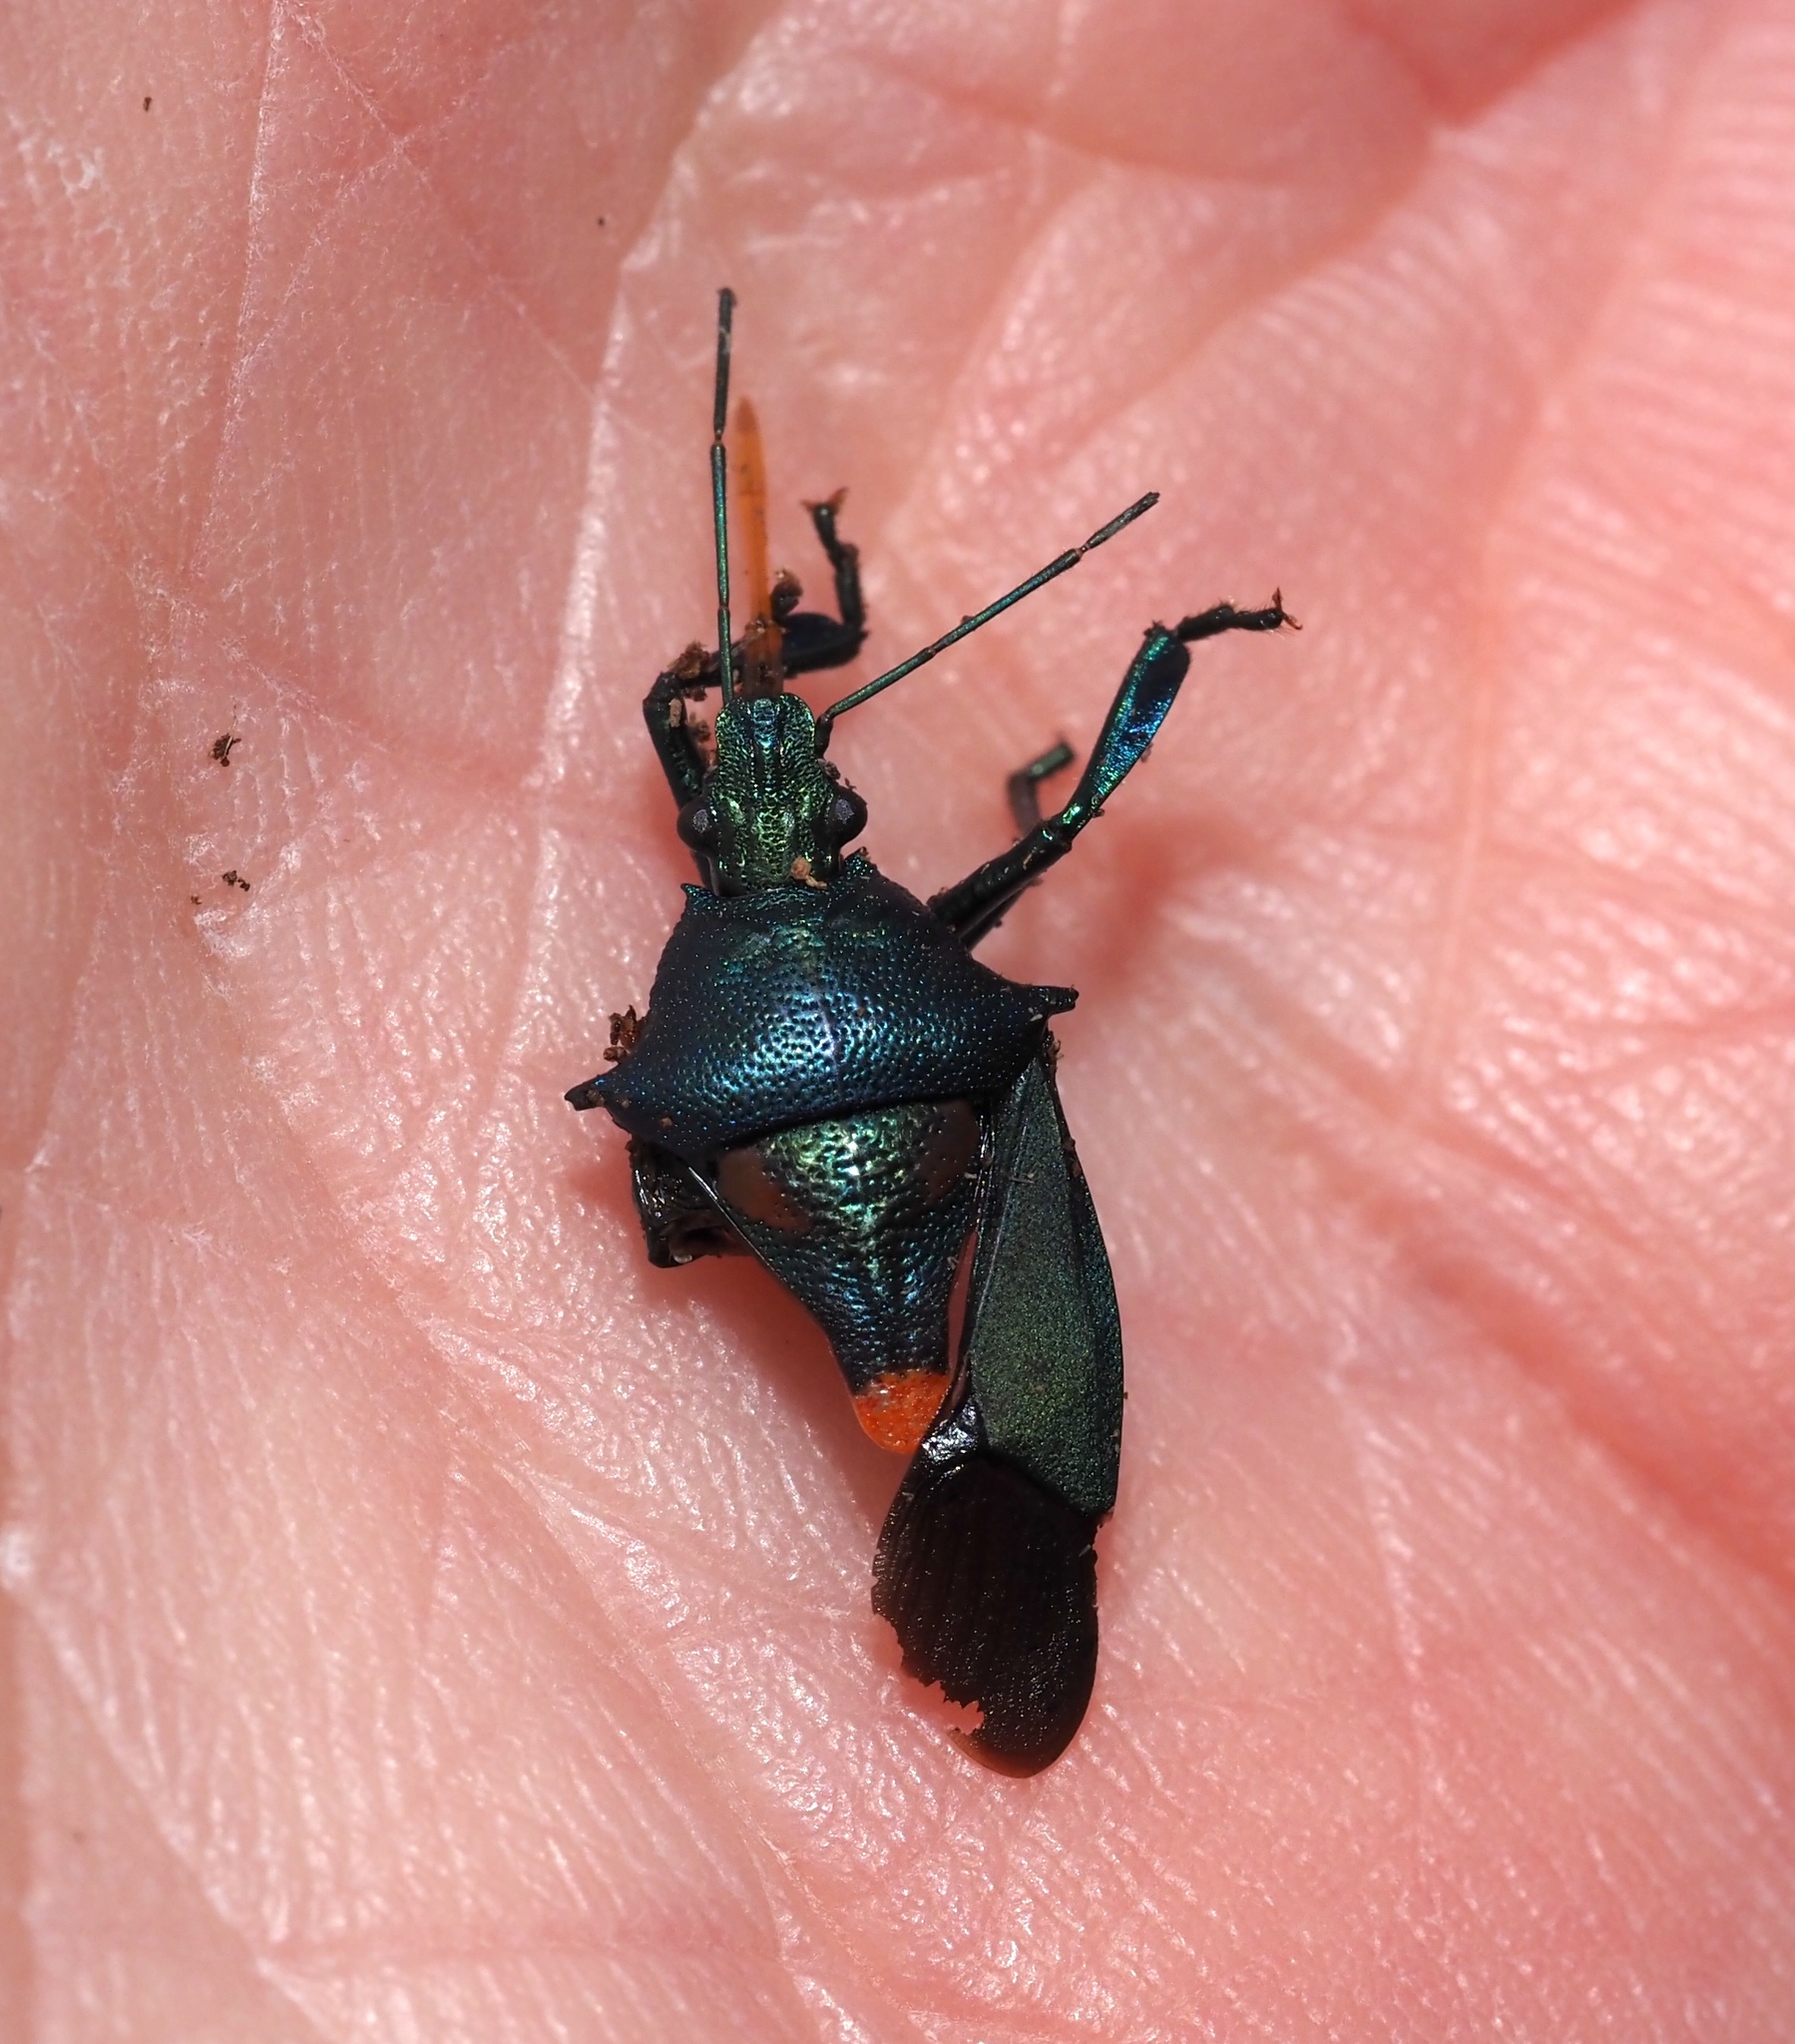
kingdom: Animalia
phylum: Arthropoda
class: Insecta
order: Hemiptera
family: Pentatomidae
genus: Euthyrhynchus
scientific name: Euthyrhynchus floridanus
